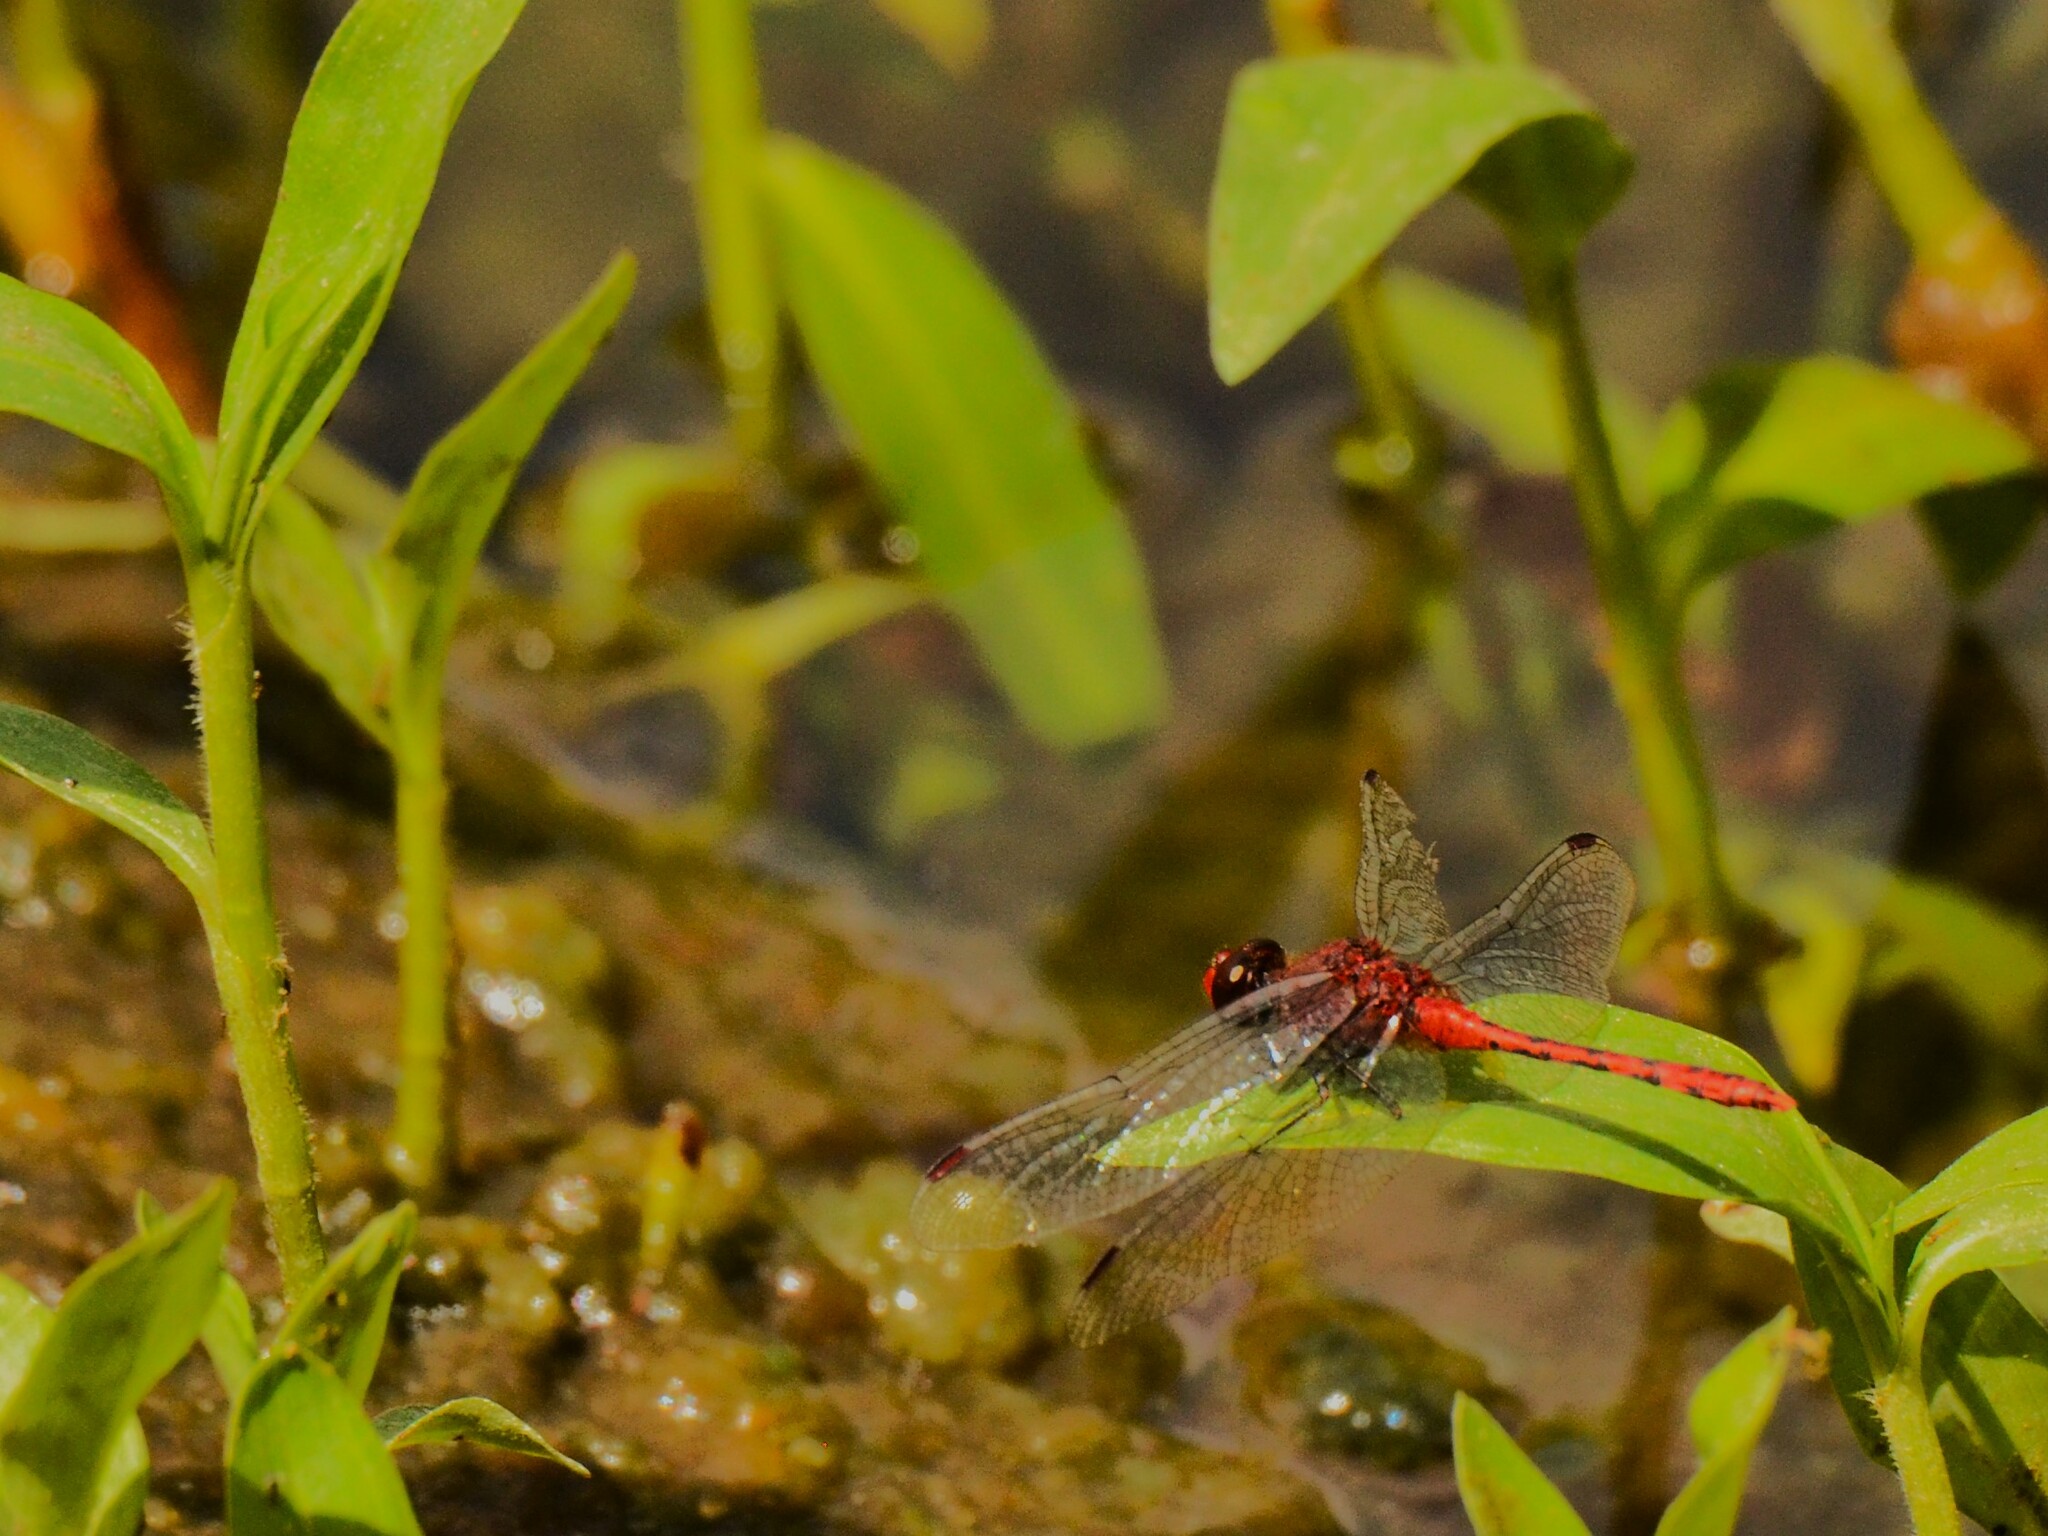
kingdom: Animalia
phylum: Arthropoda
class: Insecta
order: Odonata
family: Libellulidae
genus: Diplacodes
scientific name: Diplacodes bipunctata
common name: Red percher dragonfly
